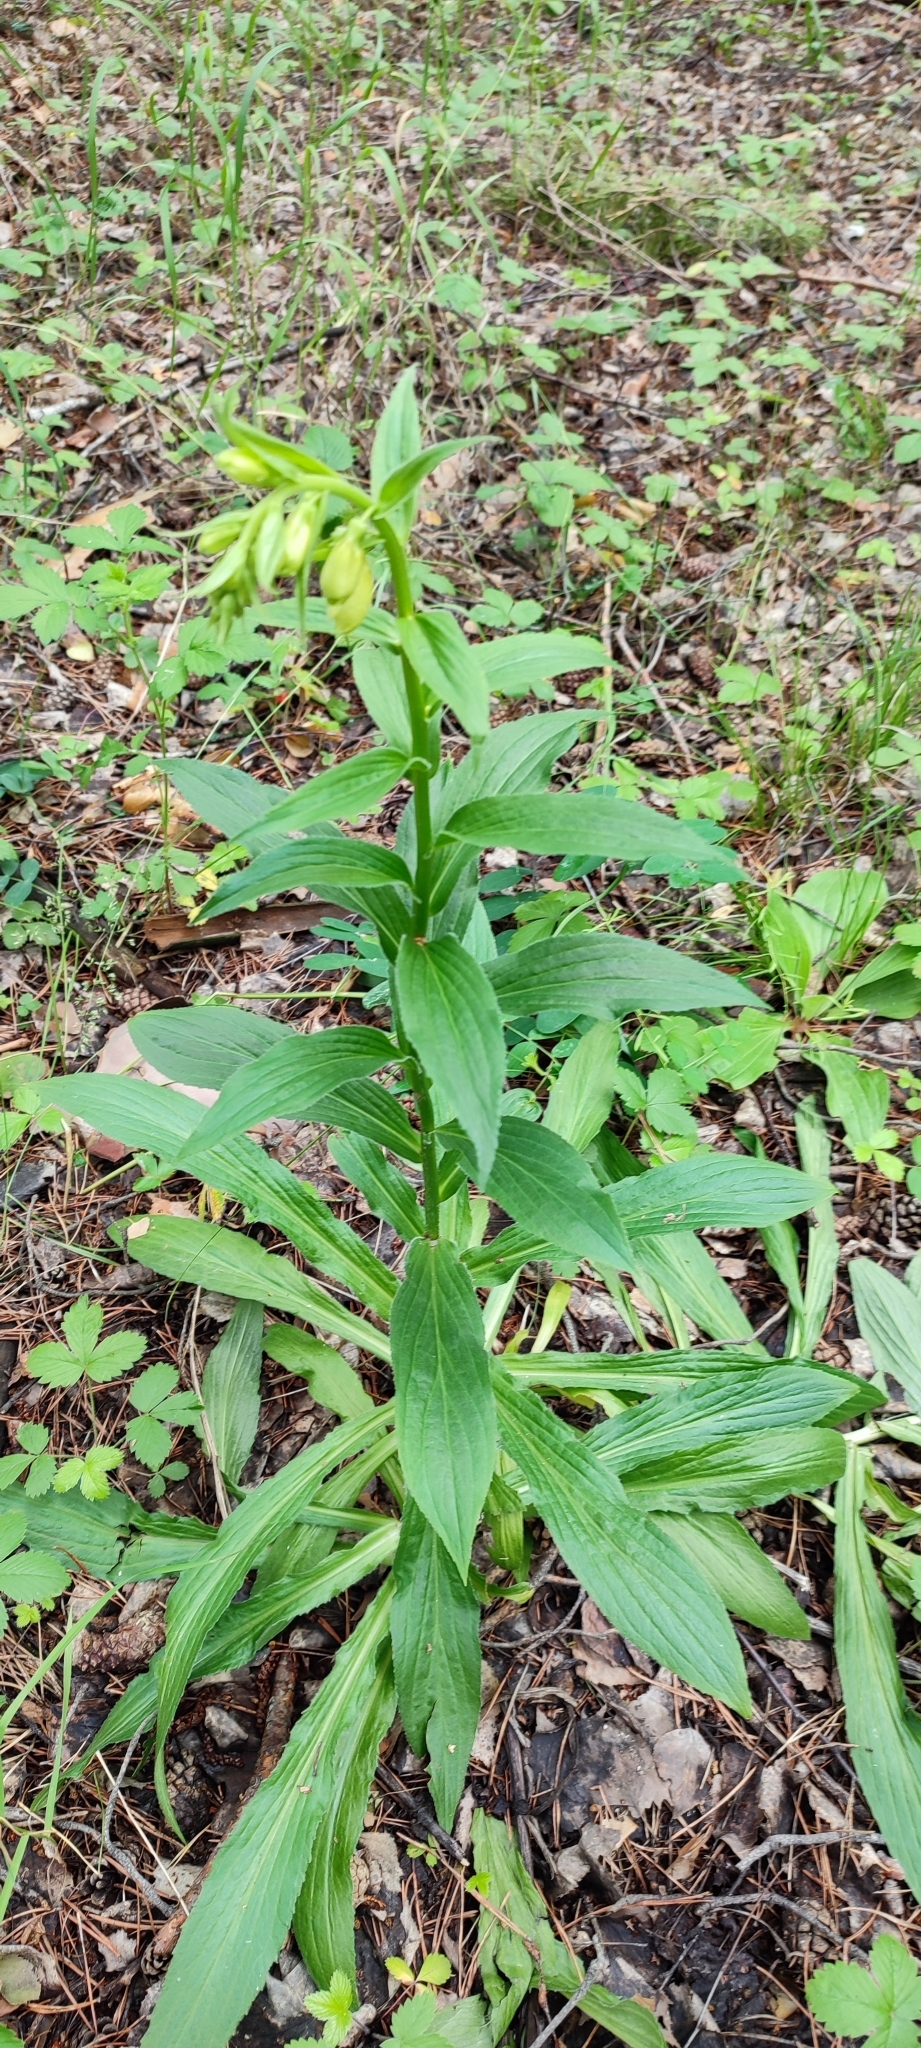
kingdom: Plantae
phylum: Tracheophyta
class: Magnoliopsida
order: Lamiales
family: Plantaginaceae
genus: Digitalis
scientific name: Digitalis grandiflora
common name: Yellow foxglove
